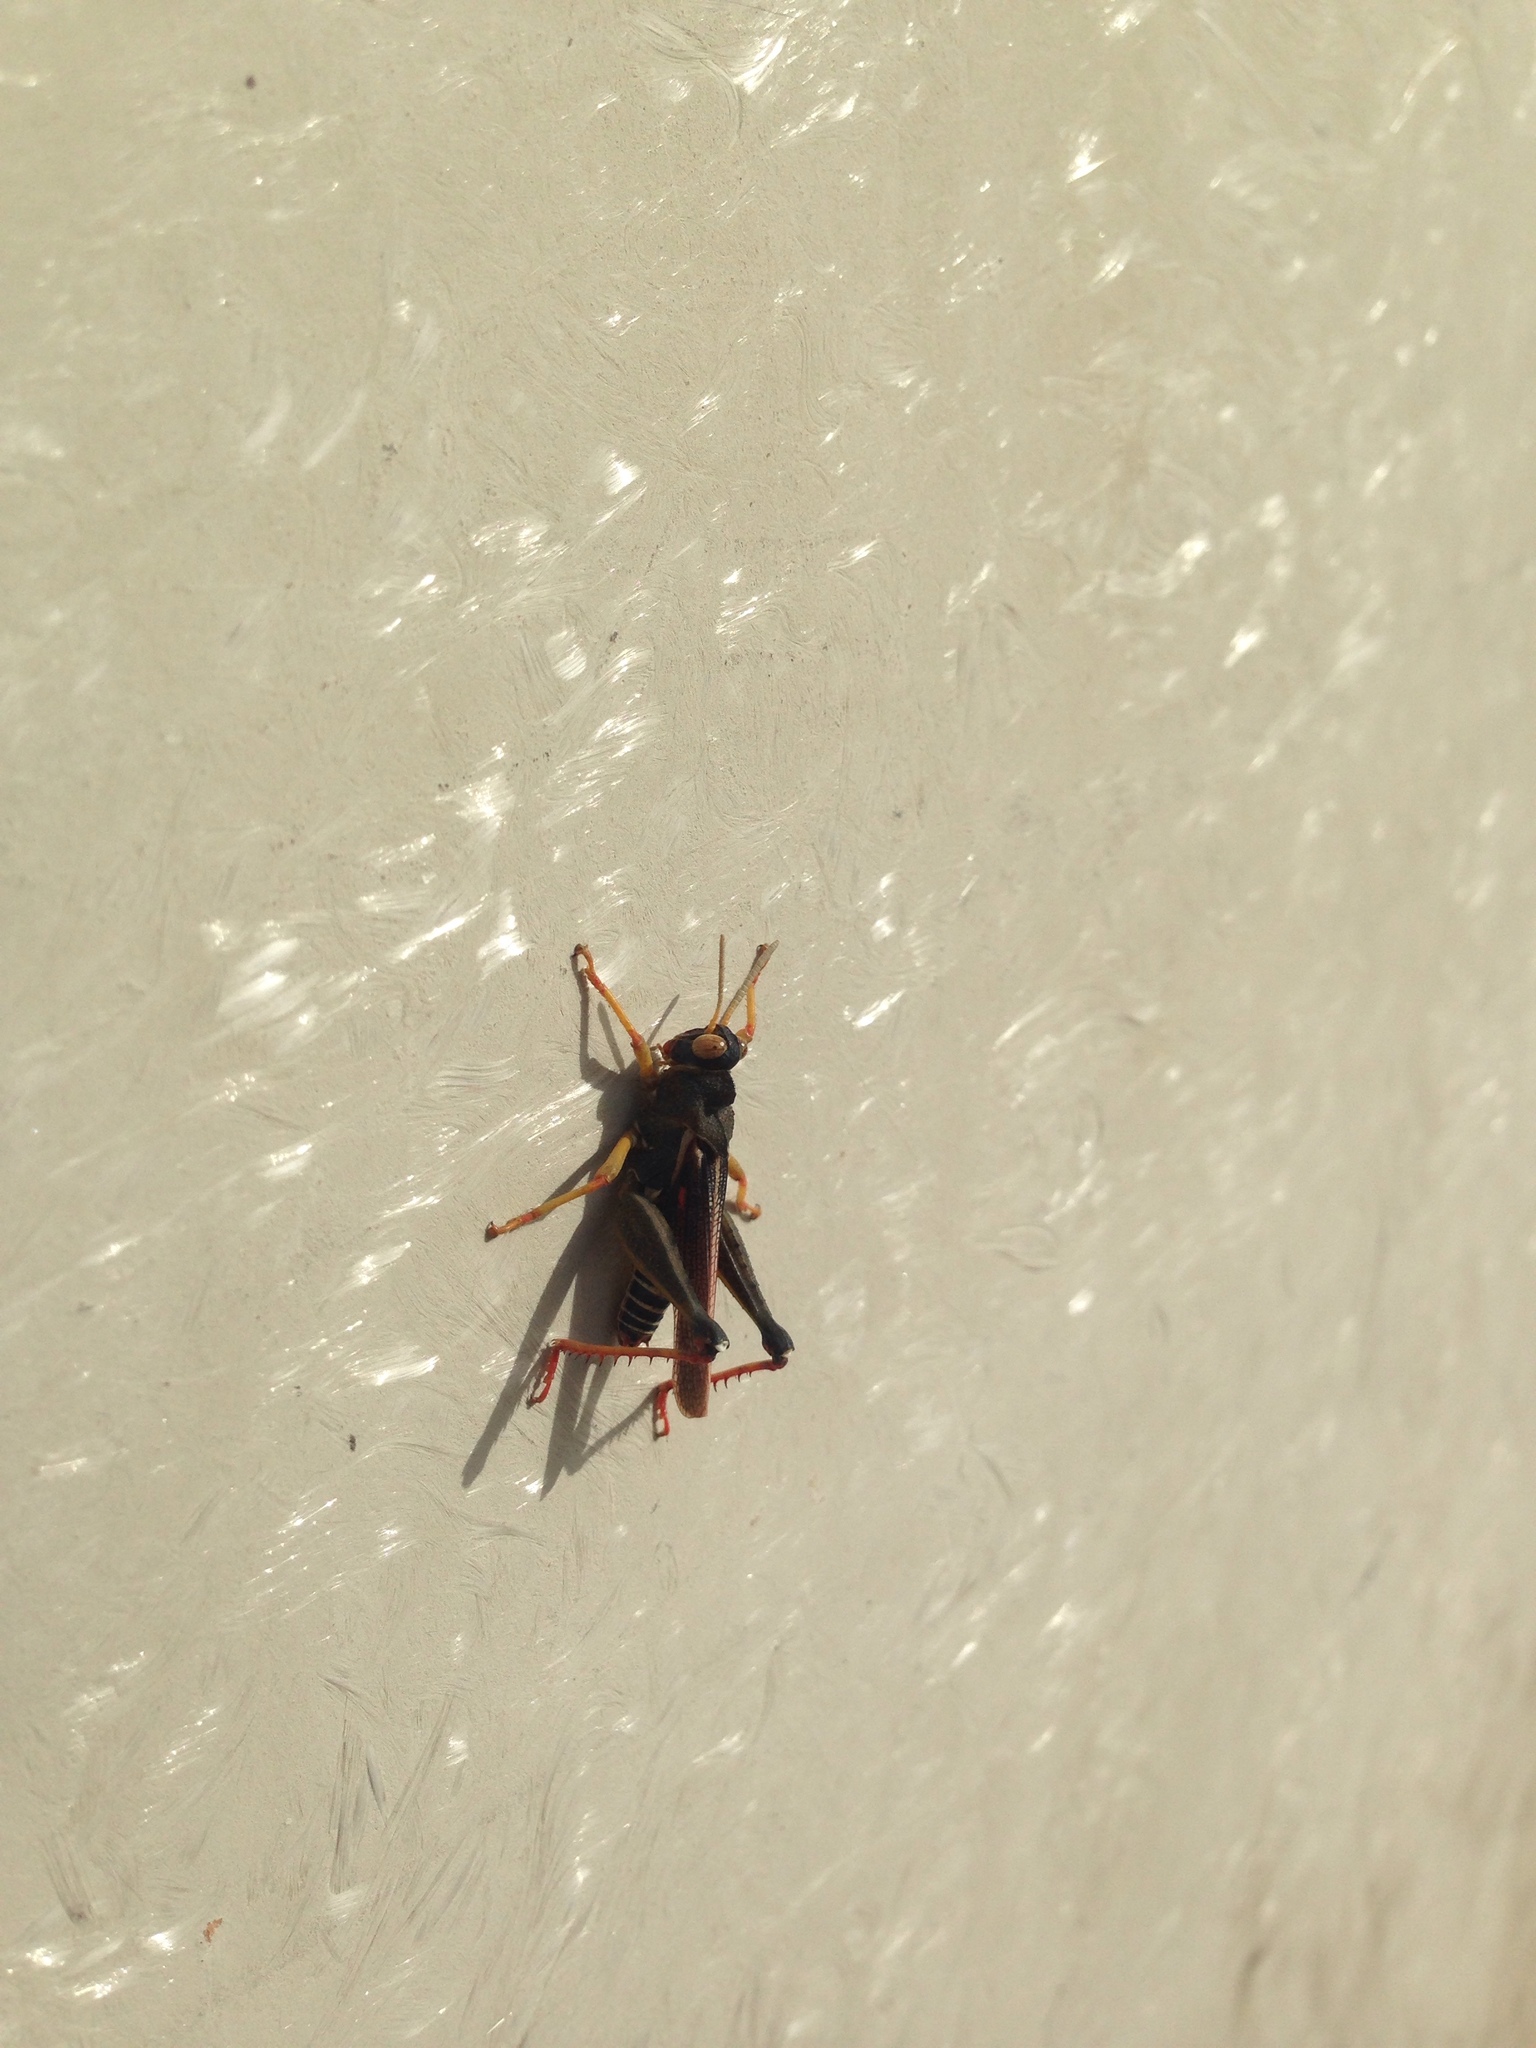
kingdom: Animalia
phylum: Arthropoda
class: Insecta
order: Orthoptera
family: Dericorythidae
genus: Dericorys
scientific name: Dericorys lobata
